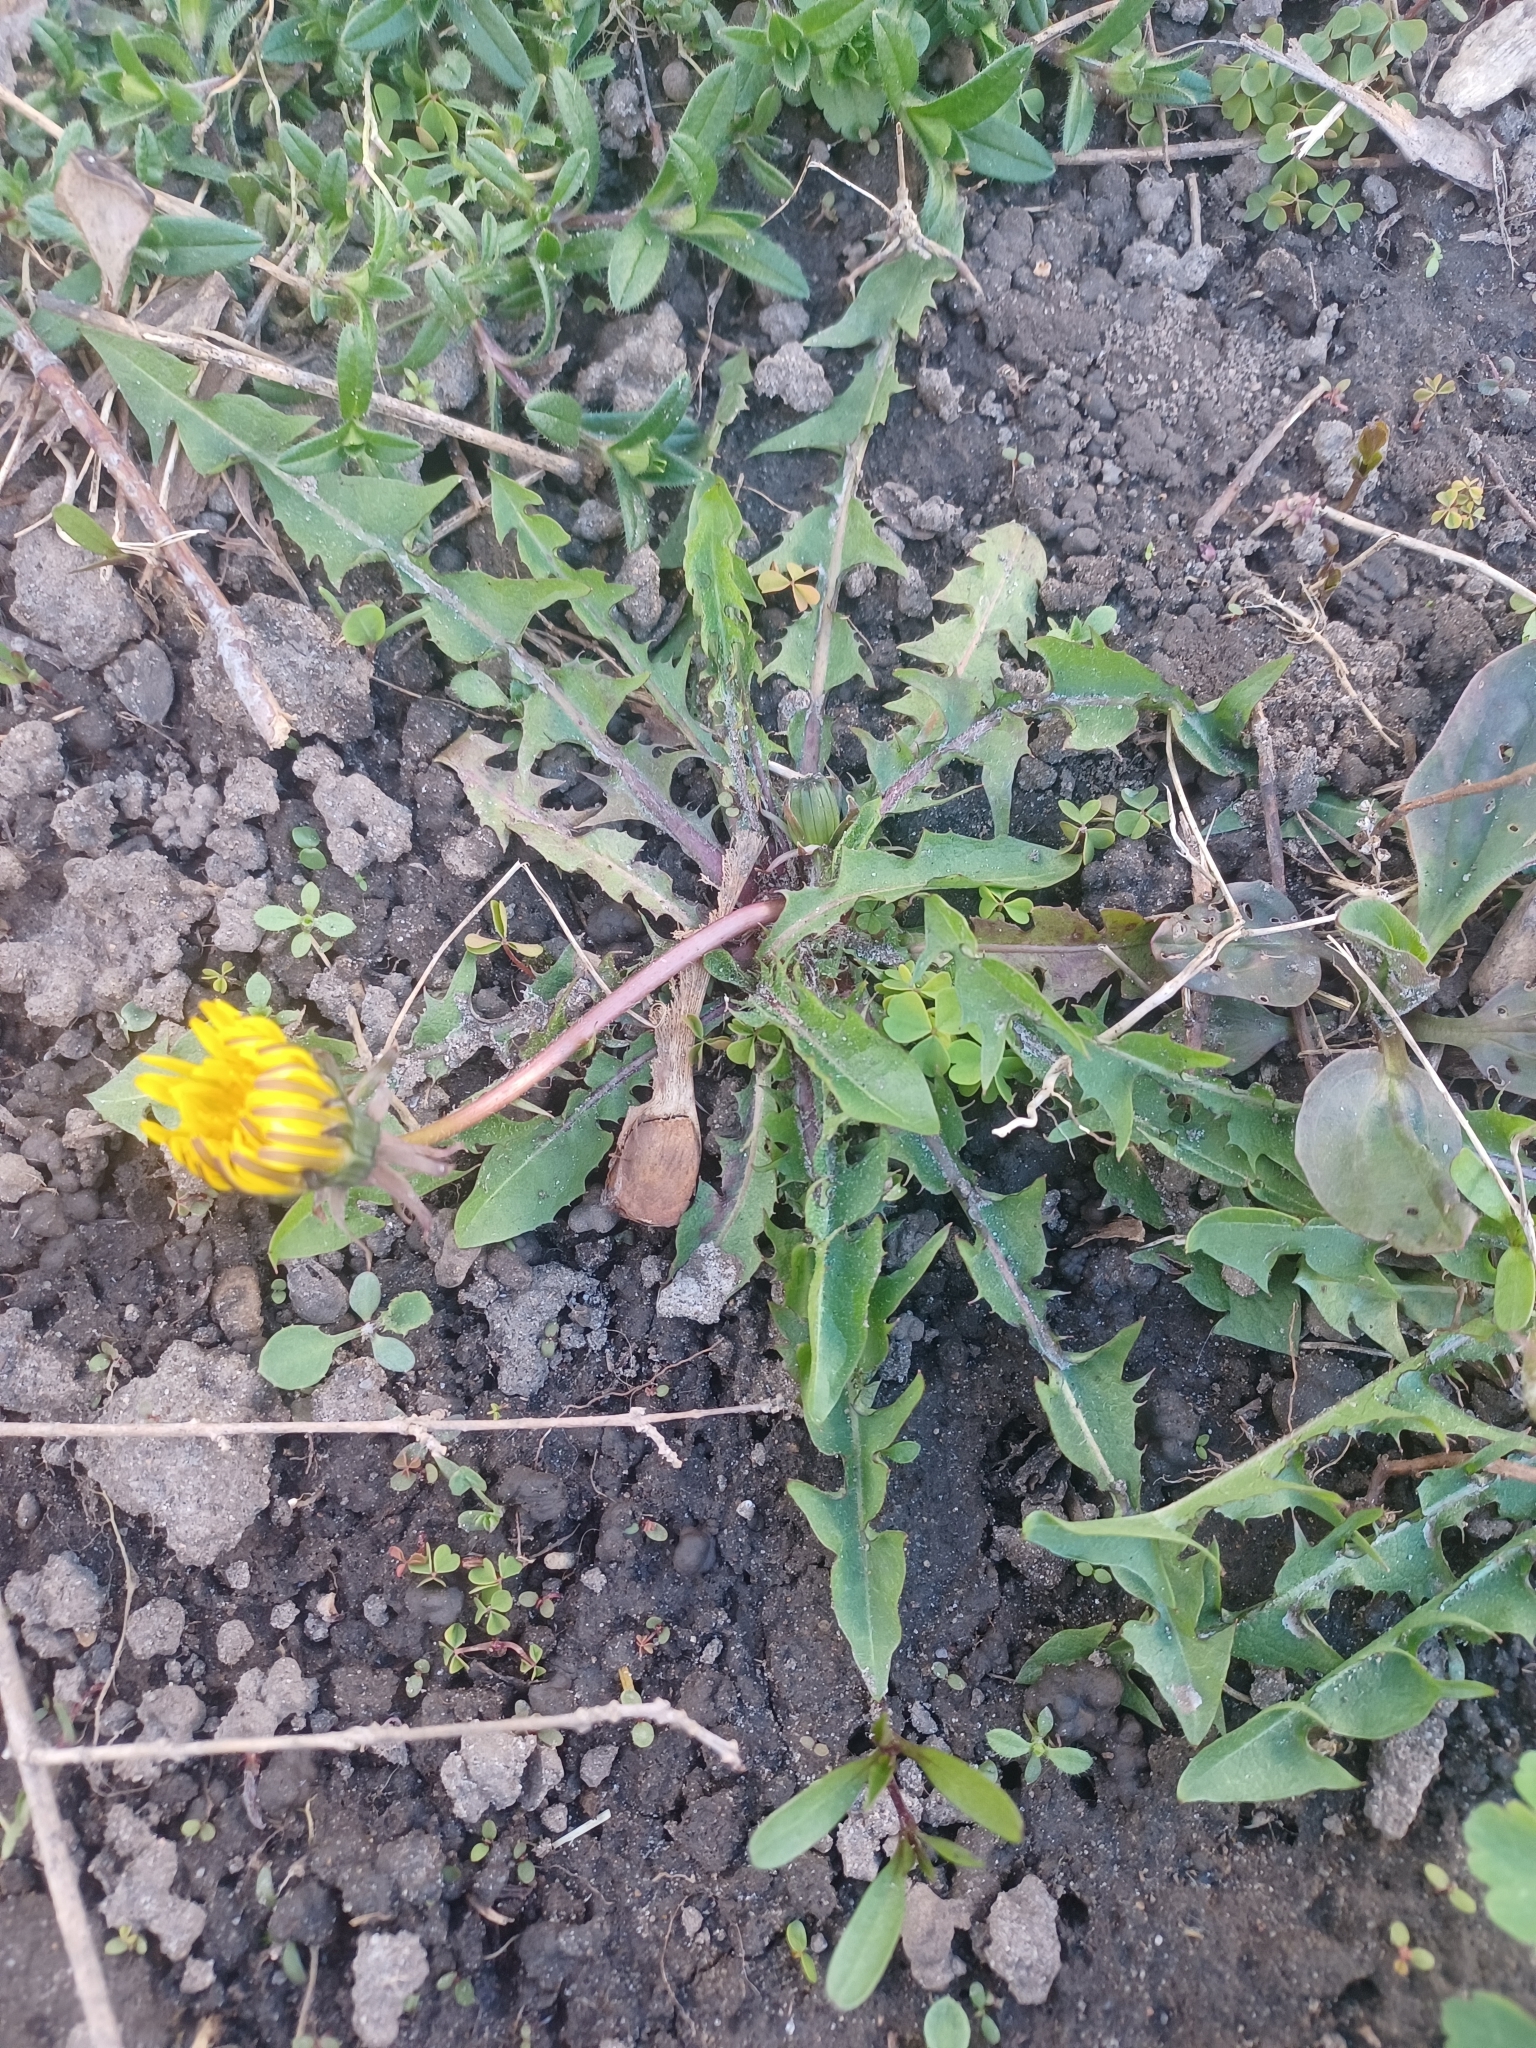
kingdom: Plantae
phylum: Tracheophyta
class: Magnoliopsida
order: Asterales
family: Asteraceae
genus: Taraxacum
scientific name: Taraxacum officinale
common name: Common dandelion
